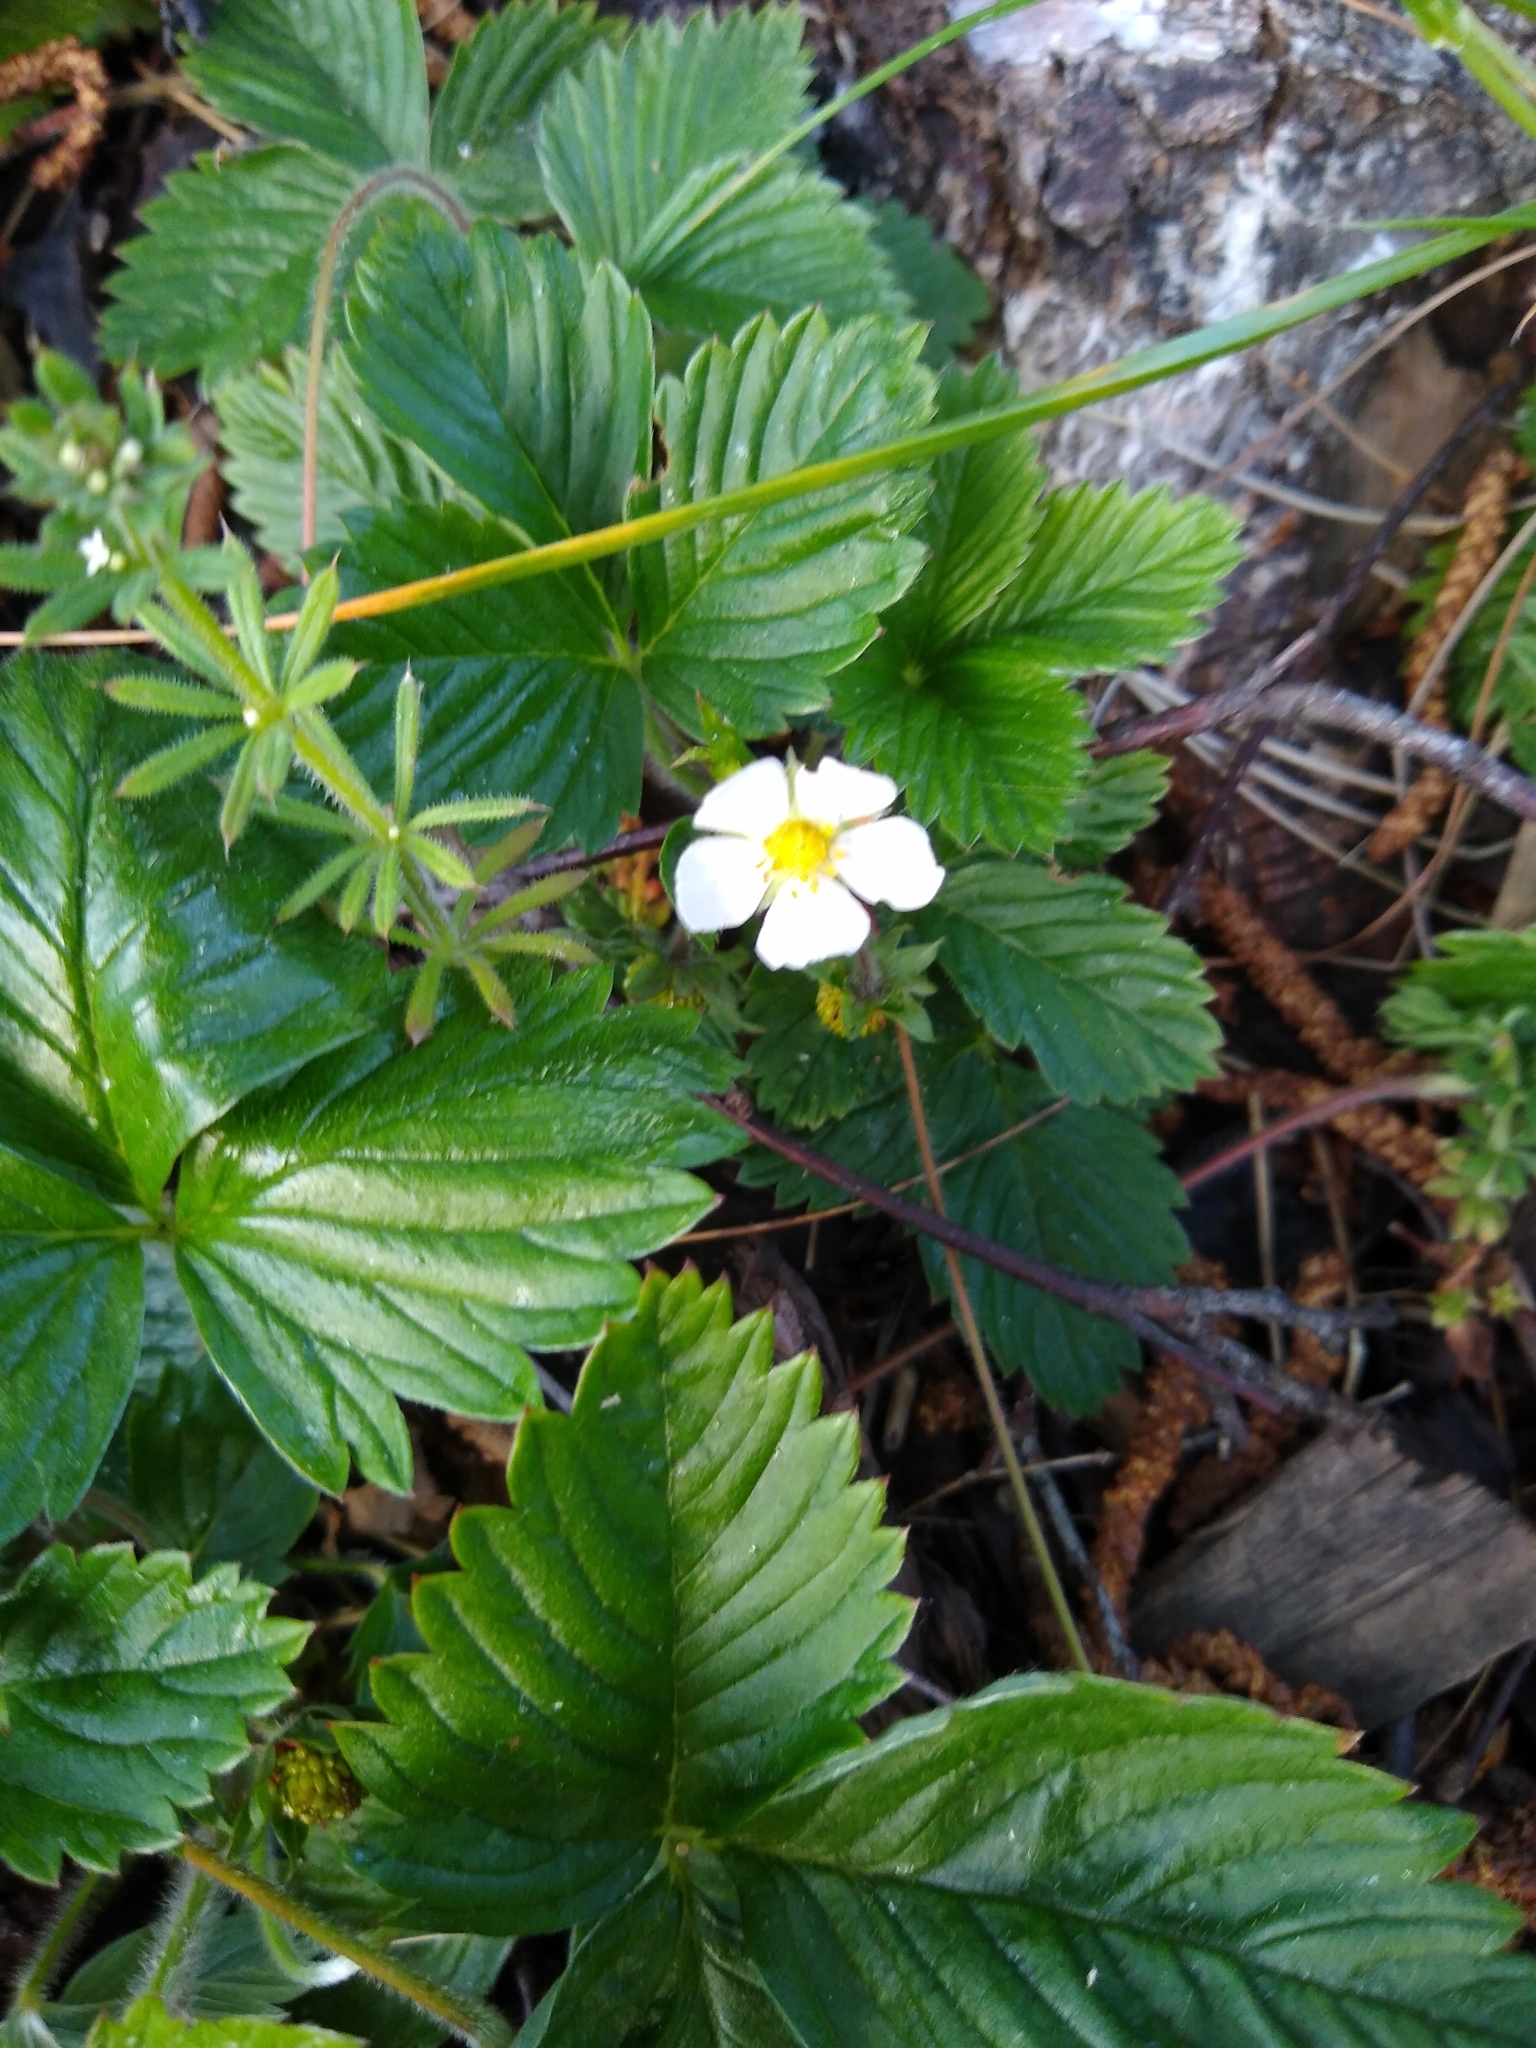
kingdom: Plantae
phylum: Tracheophyta
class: Magnoliopsida
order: Rosales
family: Rosaceae
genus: Fragaria
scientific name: Fragaria vesca
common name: Wild strawberry
